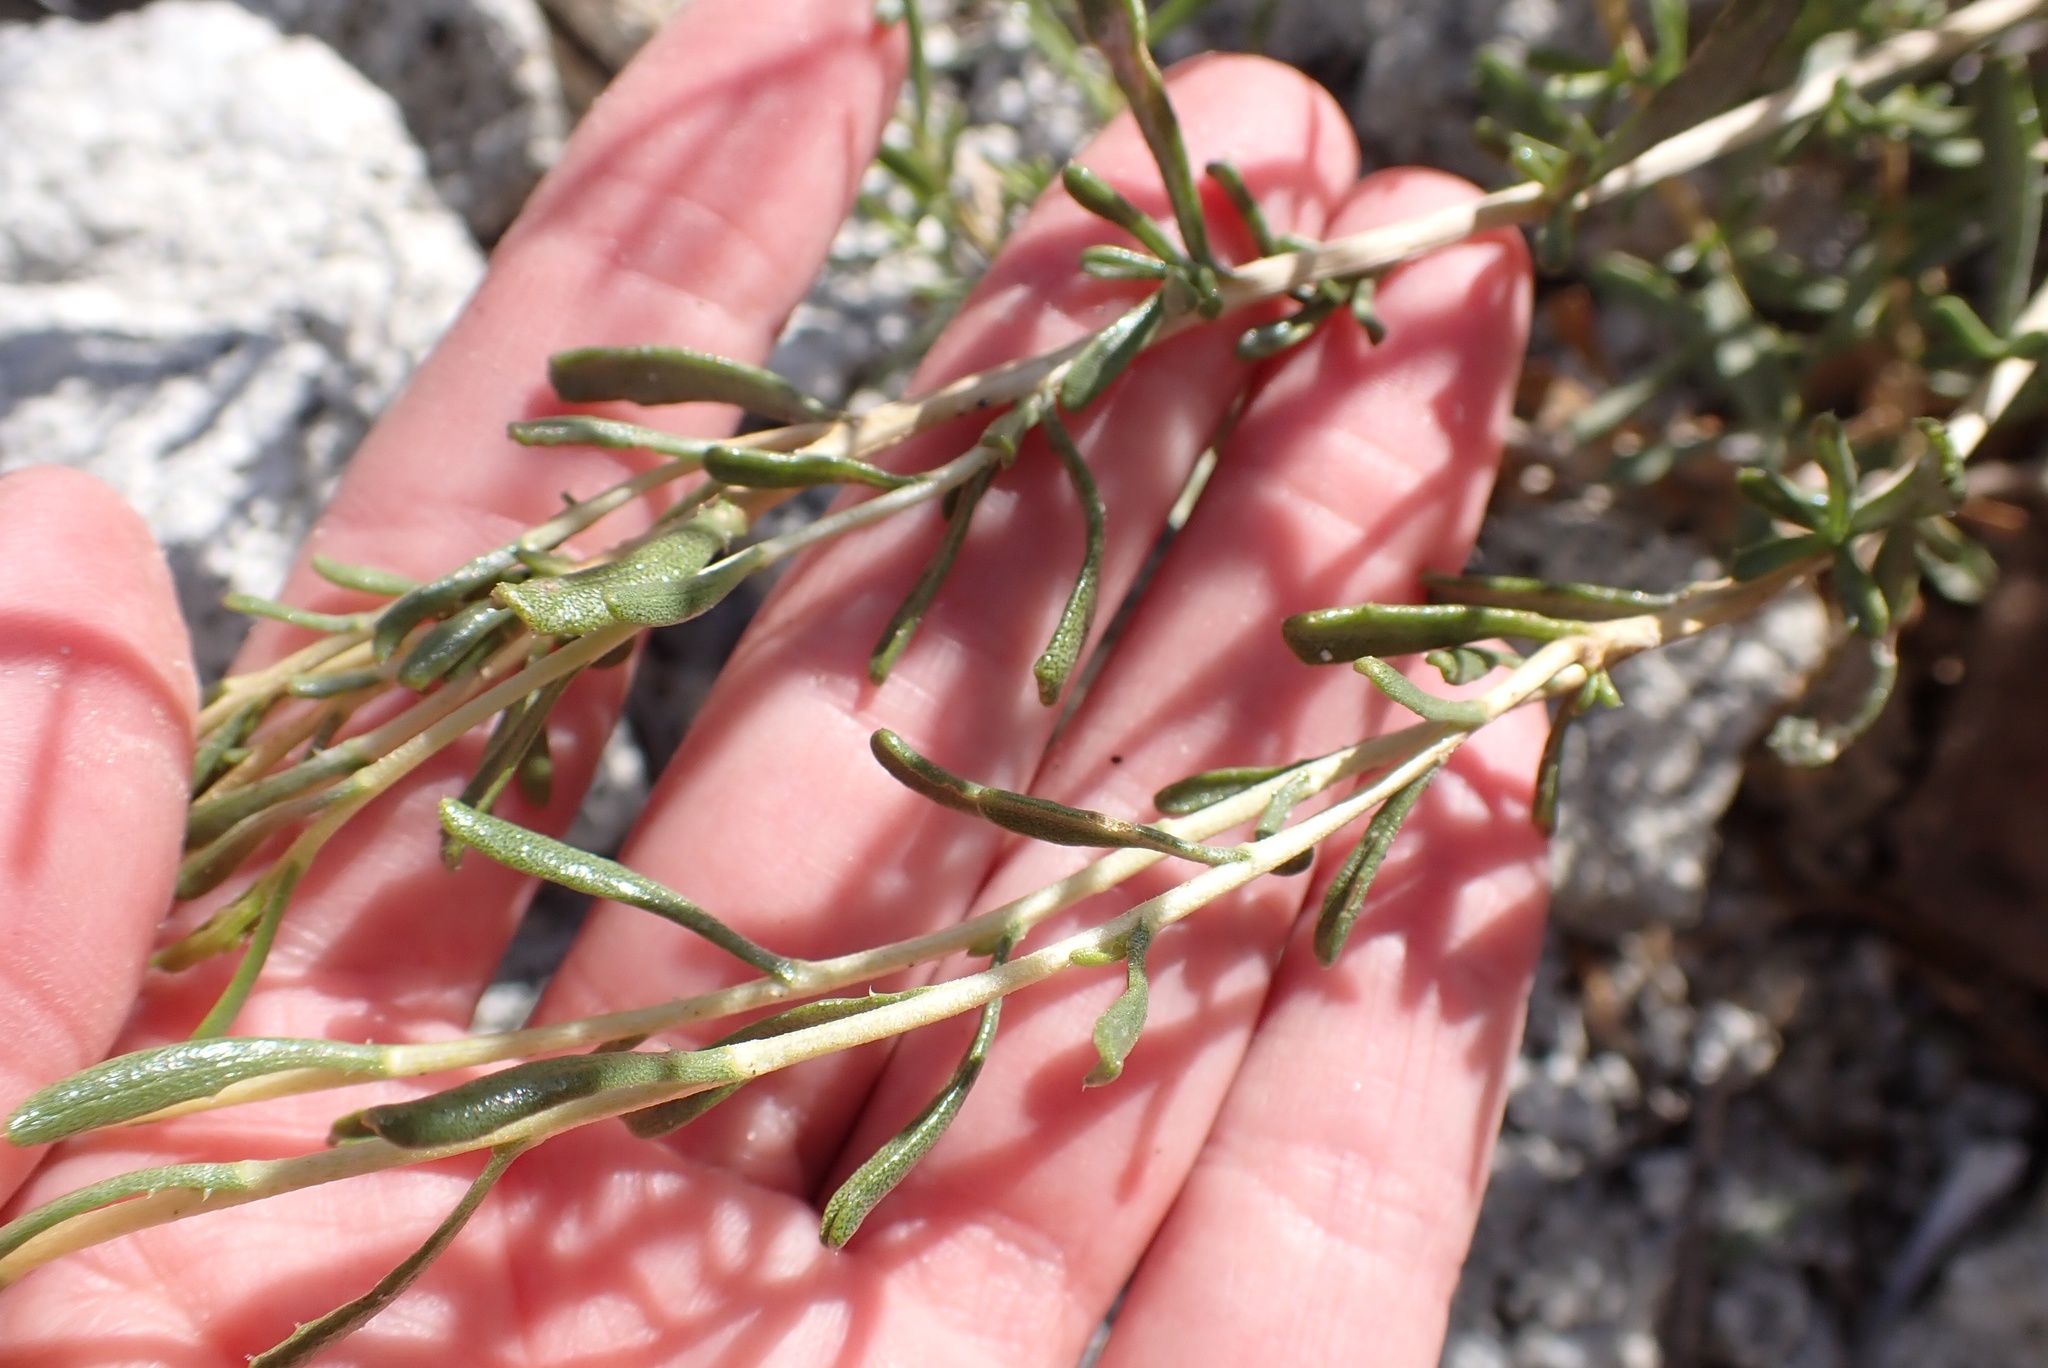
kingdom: Plantae
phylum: Tracheophyta
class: Magnoliopsida
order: Asterales
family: Asteraceae
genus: Isocoma
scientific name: Isocoma acradenia
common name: Alkali jimmyweed
